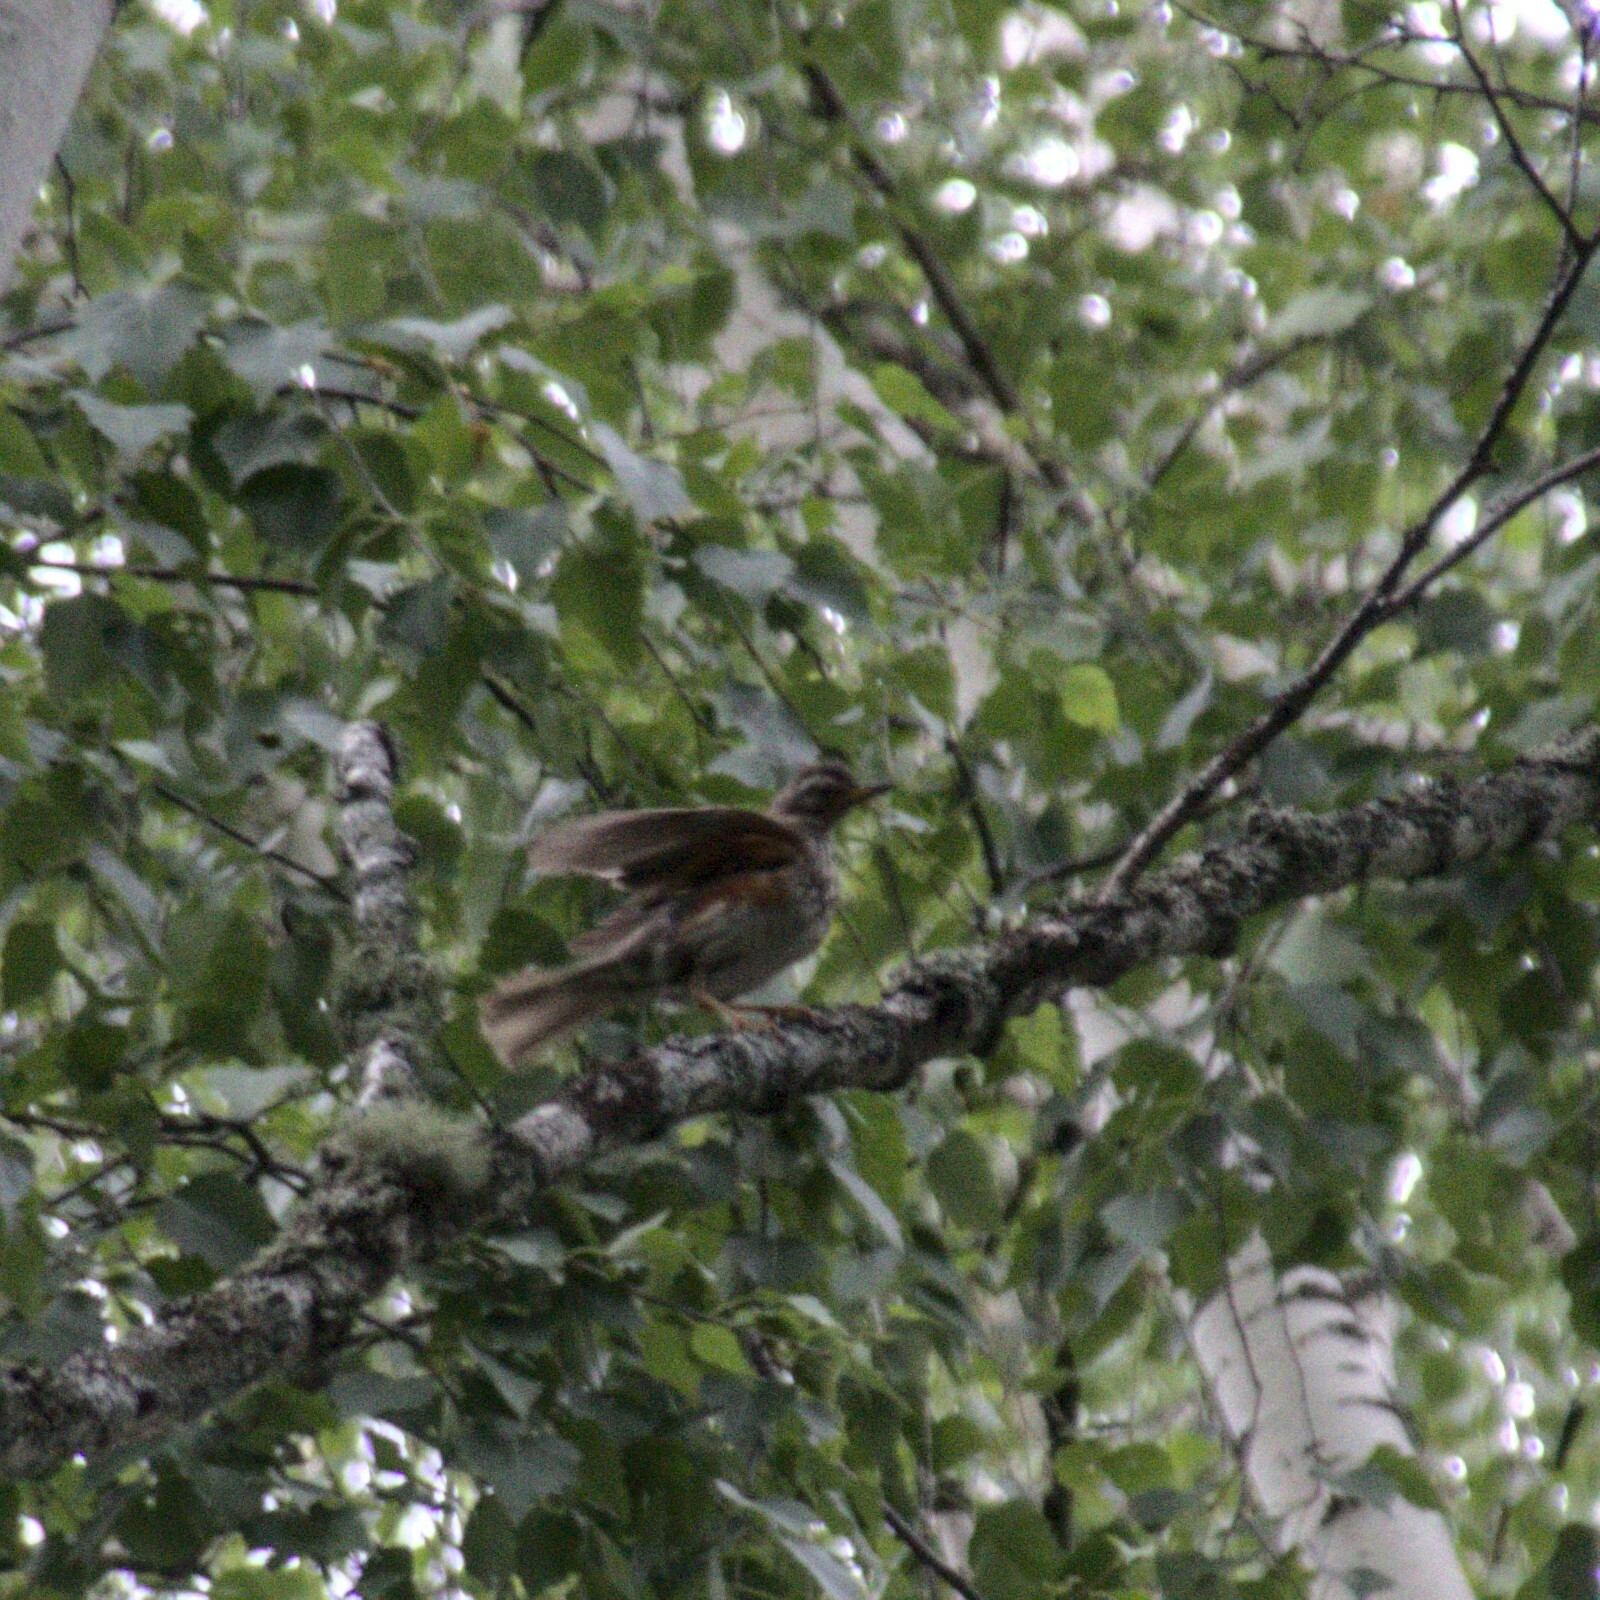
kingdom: Animalia
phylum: Chordata
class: Aves
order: Passeriformes
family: Turdidae
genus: Turdus
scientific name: Turdus iliacus
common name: Redwing
